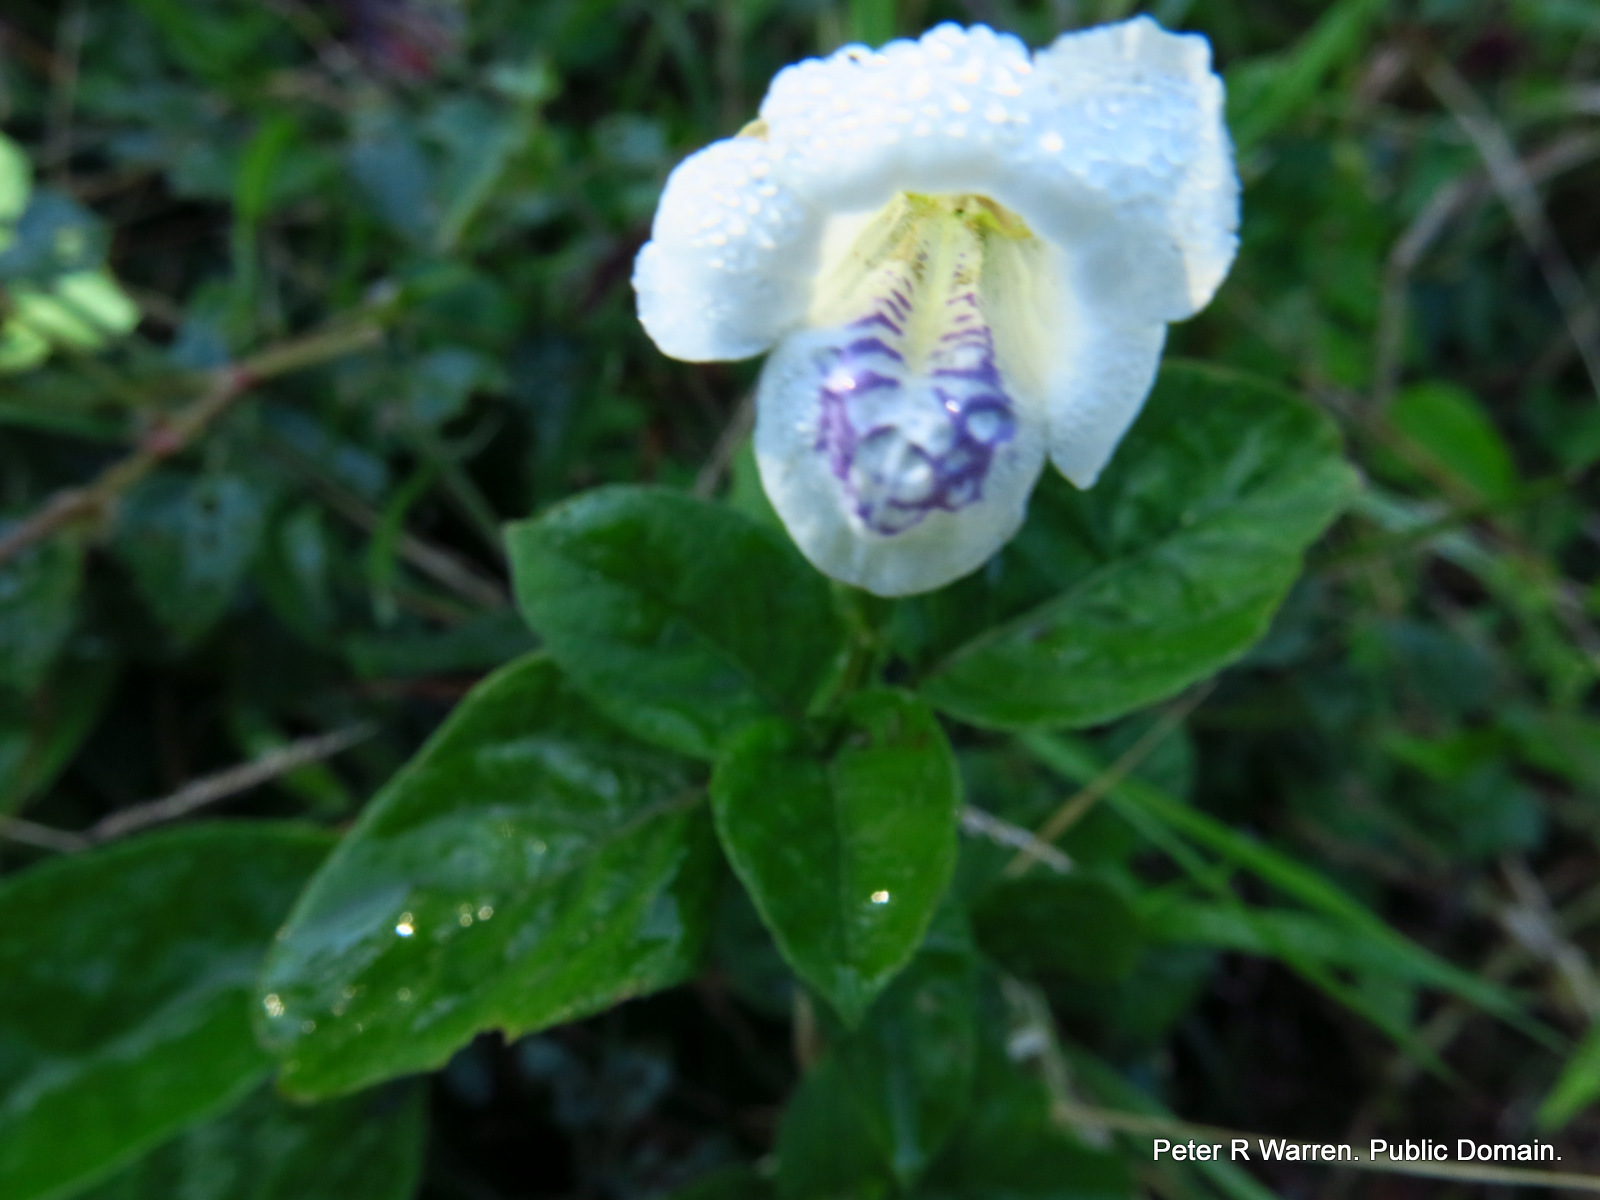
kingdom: Plantae
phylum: Tracheophyta
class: Magnoliopsida
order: Lamiales
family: Acanthaceae
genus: Asystasia
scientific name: Asystasia intrusa
